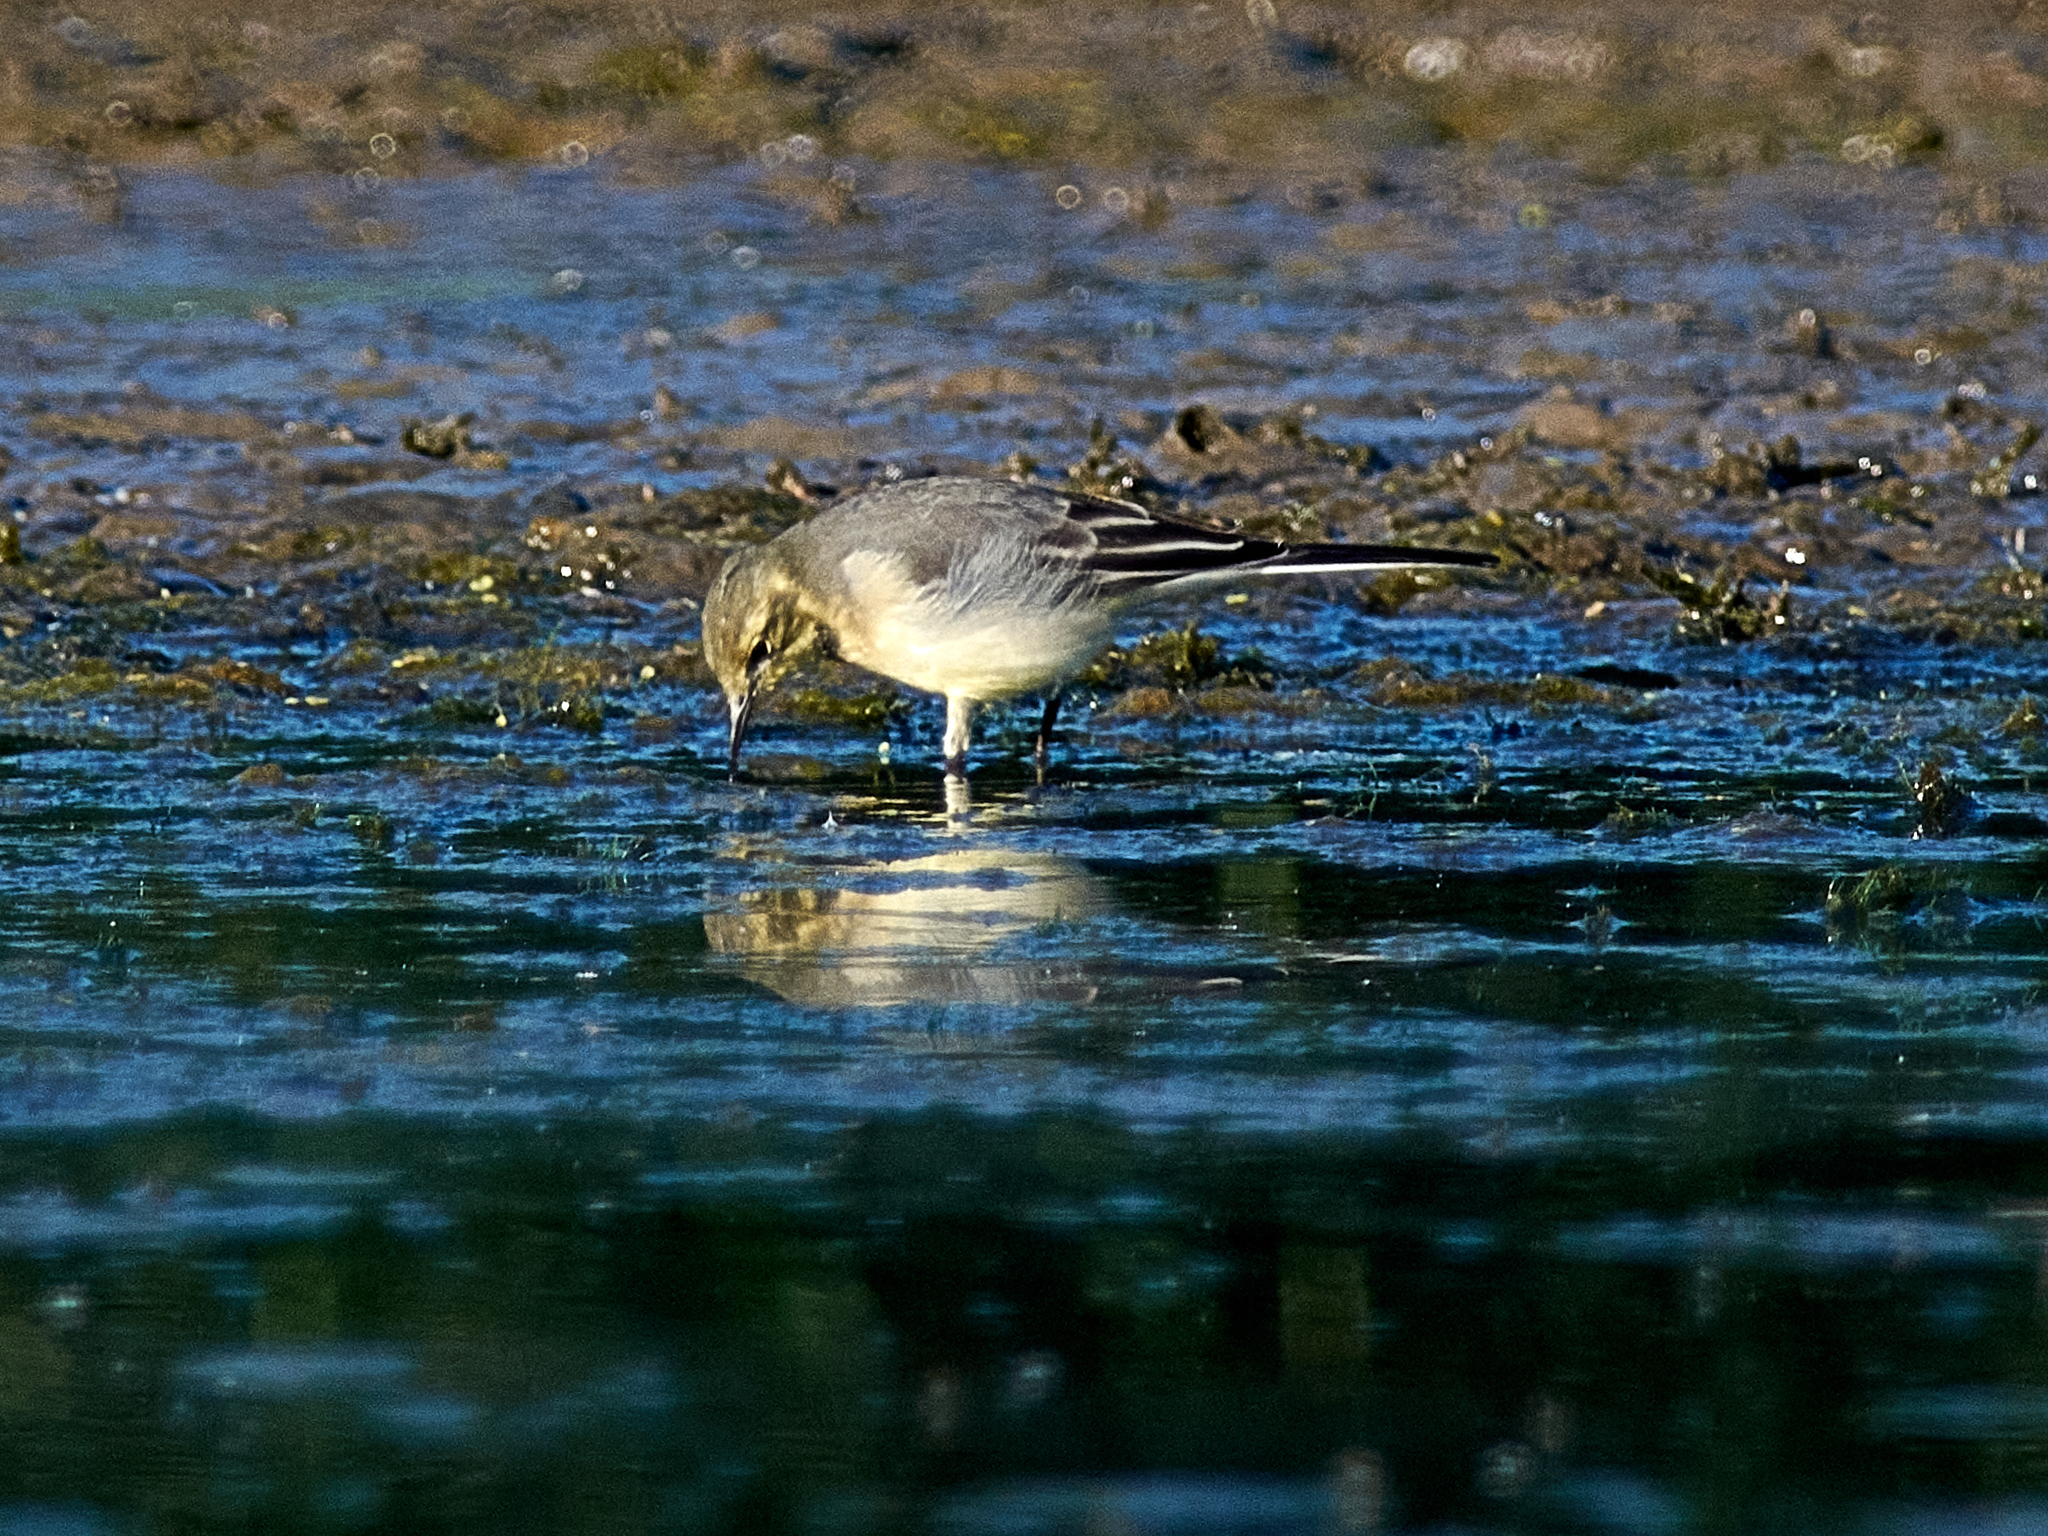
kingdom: Animalia
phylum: Chordata
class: Aves
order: Passeriformes
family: Motacillidae
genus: Motacilla
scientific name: Motacilla citreola
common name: Citrine wagtail
